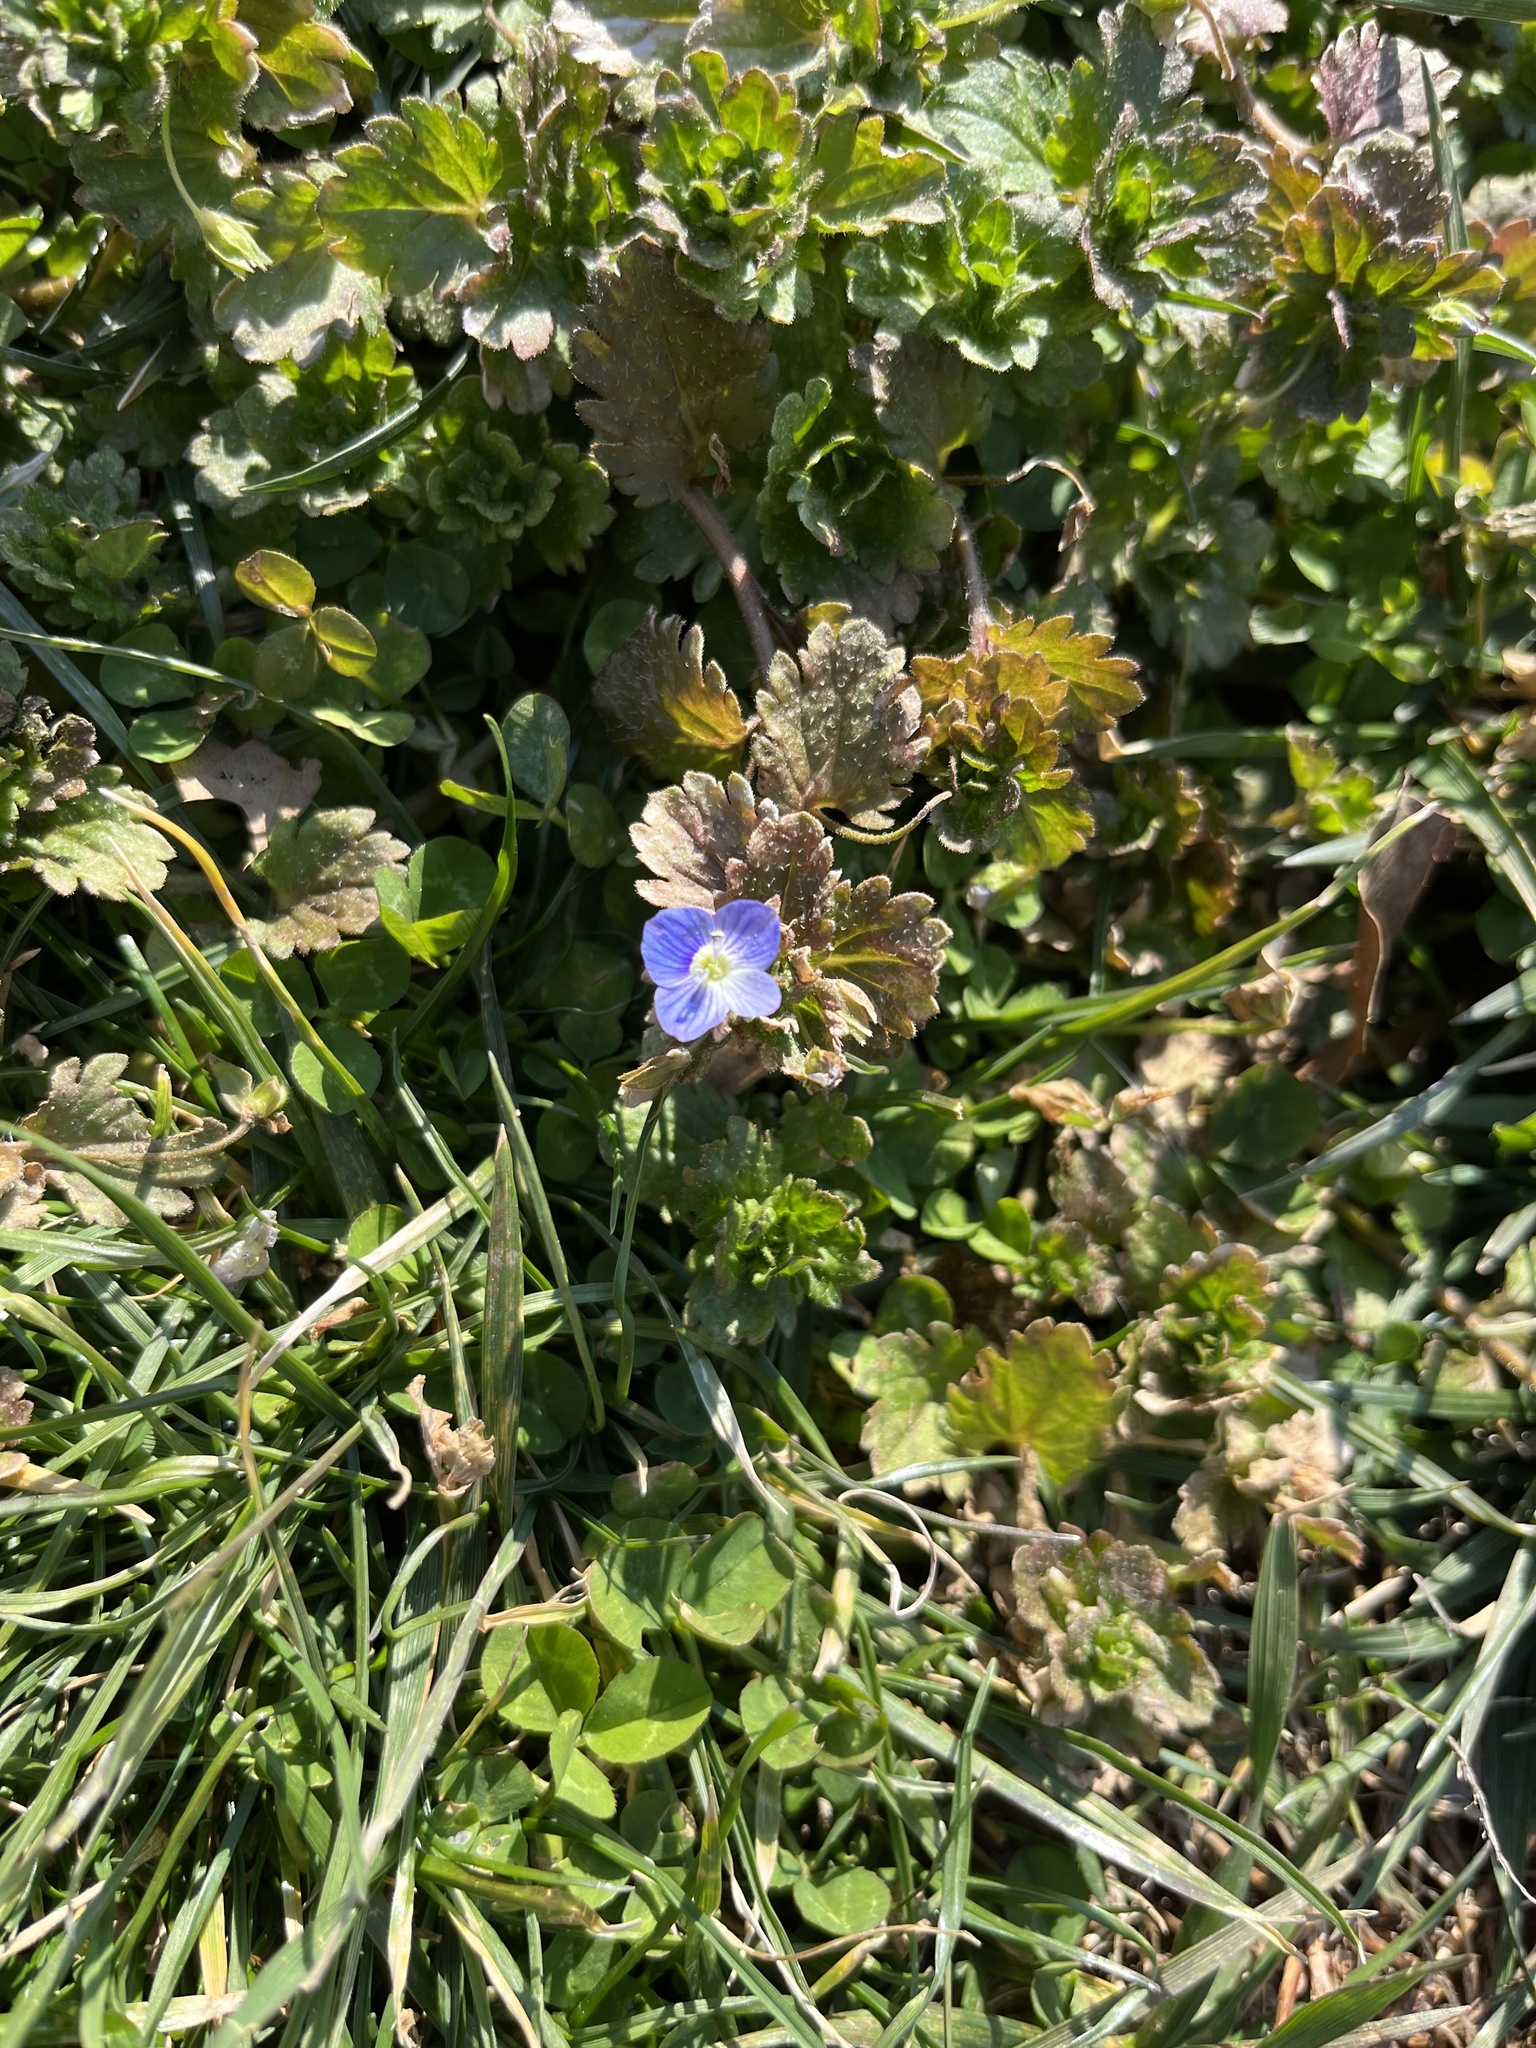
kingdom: Plantae
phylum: Tracheophyta
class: Magnoliopsida
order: Lamiales
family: Plantaginaceae
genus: Veronica
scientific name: Veronica persica
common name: Common field-speedwell
